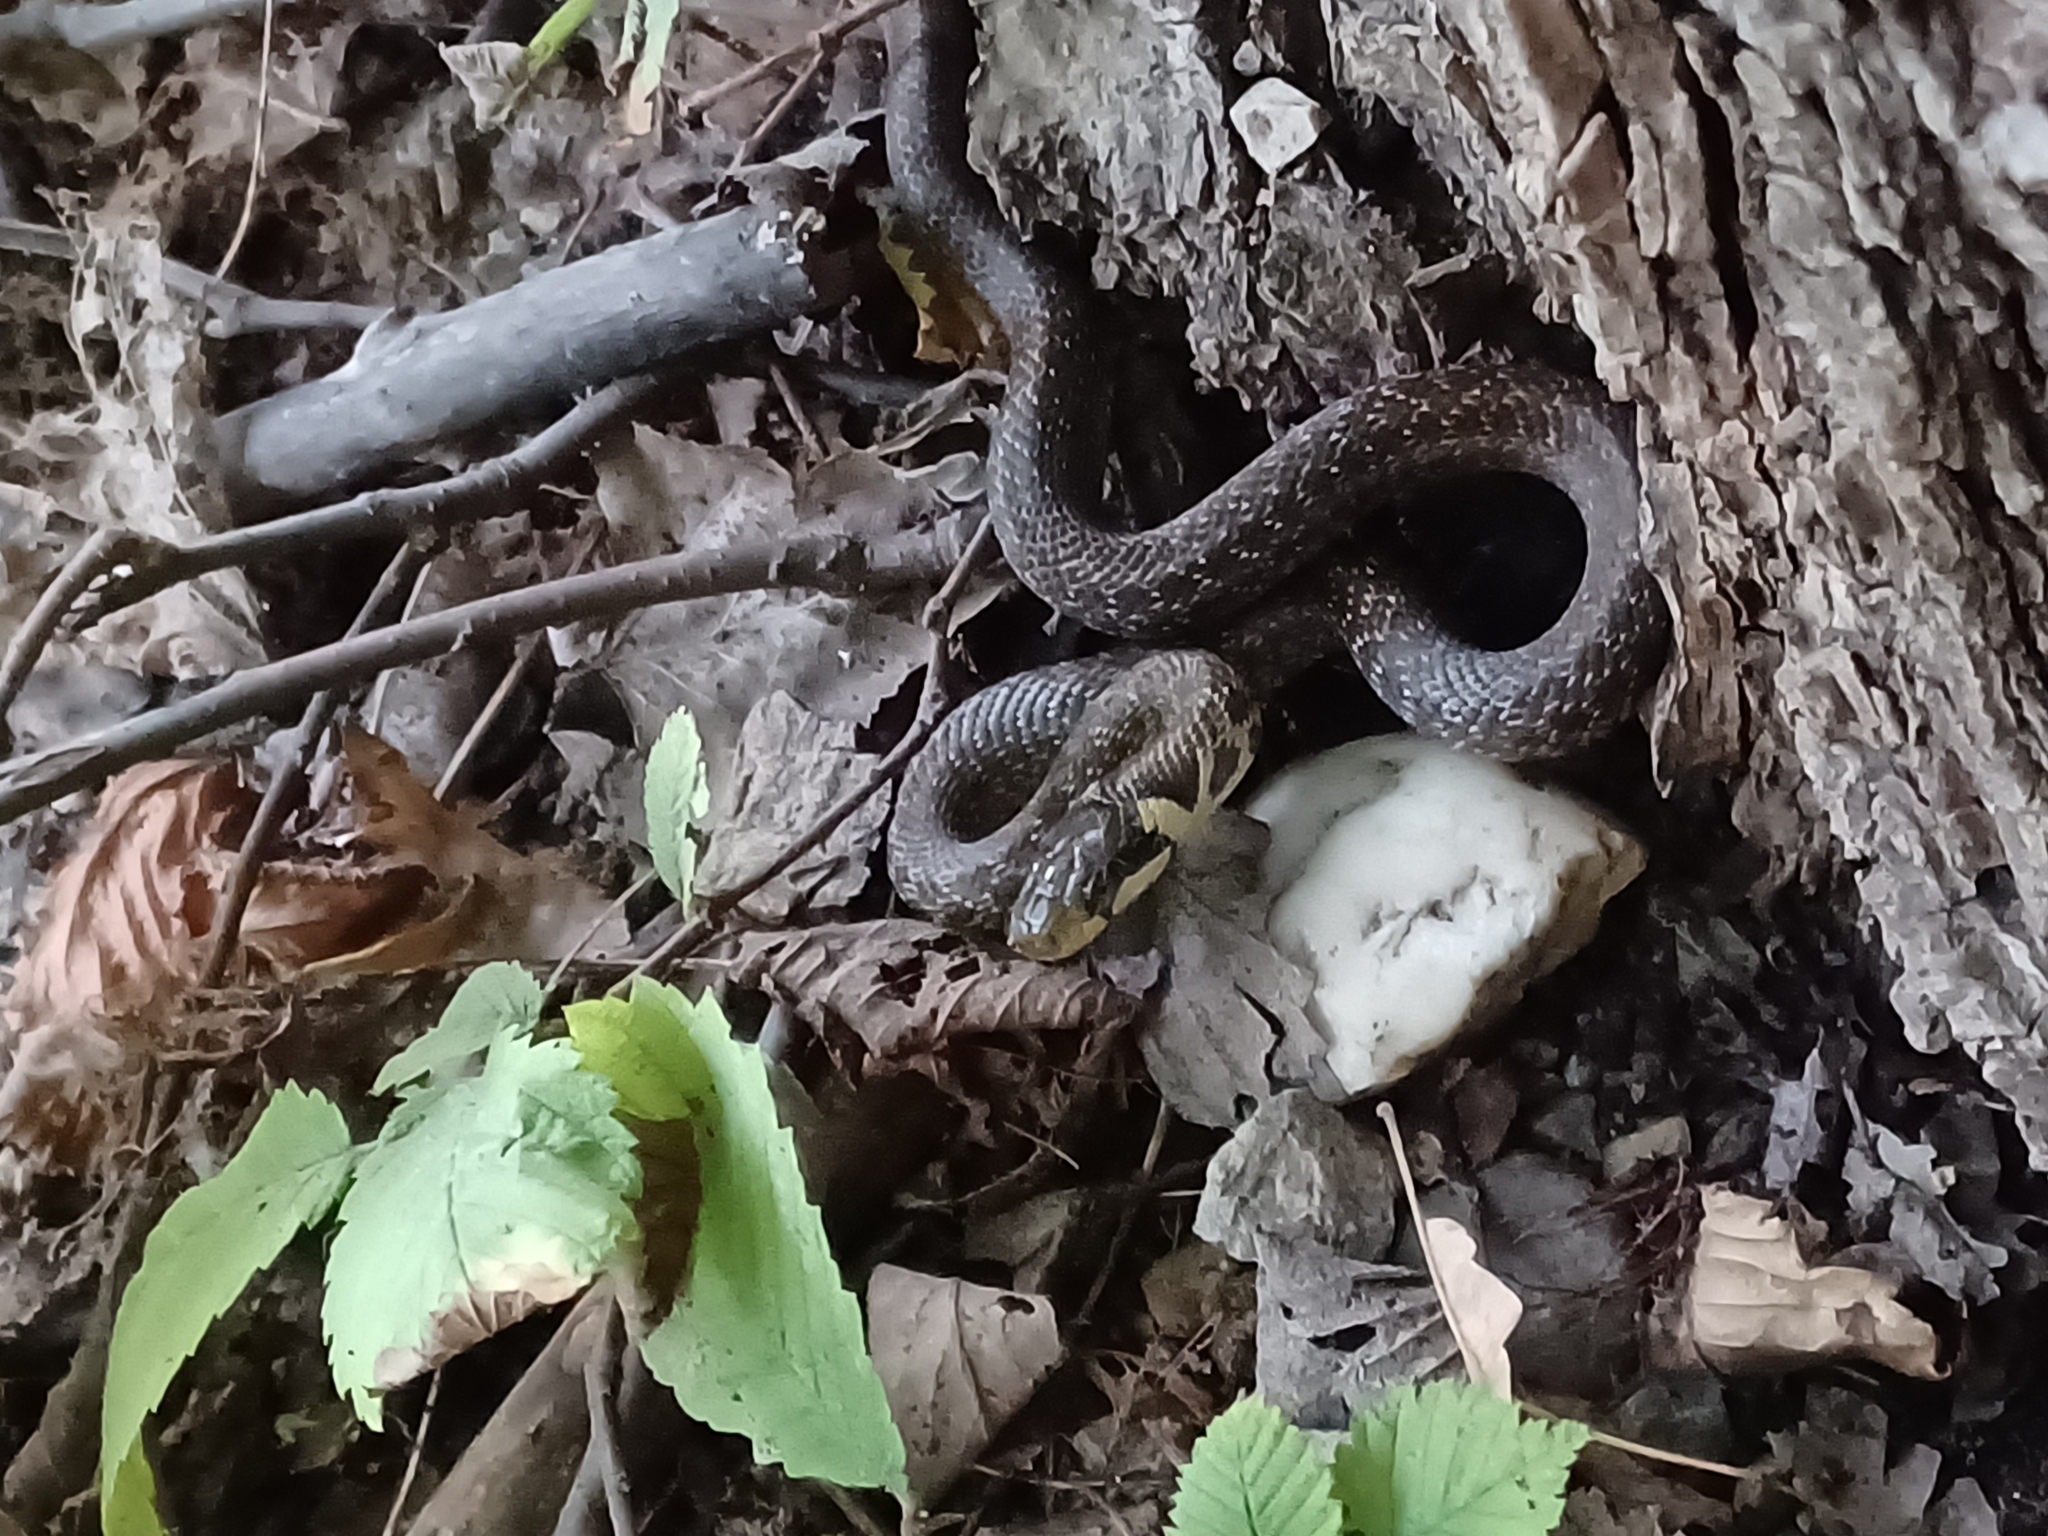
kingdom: Animalia
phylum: Chordata
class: Squamata
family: Colubridae
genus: Zamenis
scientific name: Zamenis longissimus
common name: Aesculapean snake
